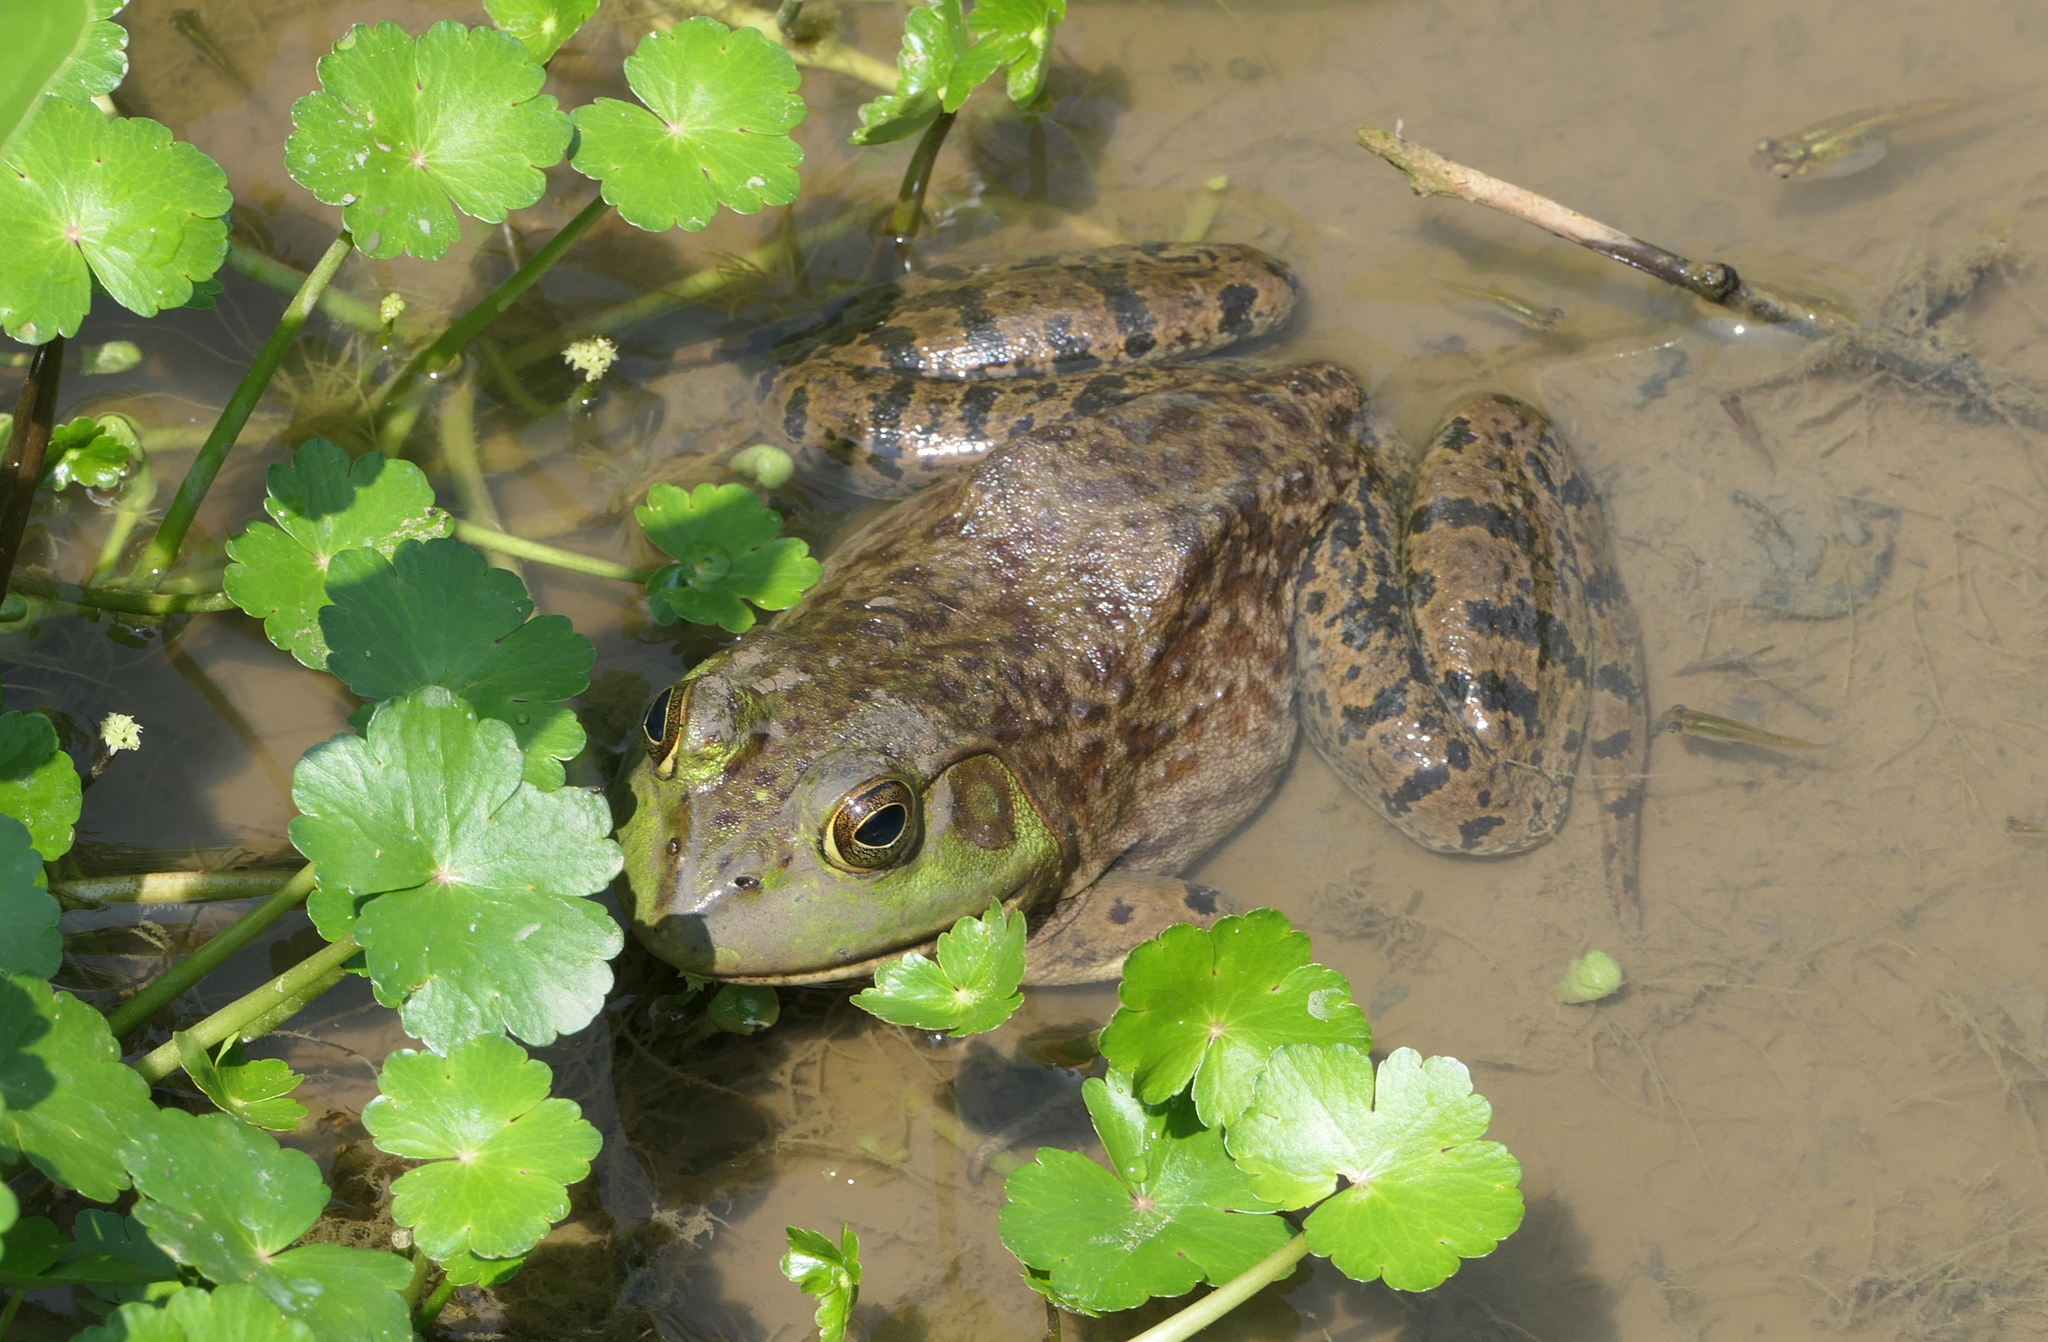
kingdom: Animalia
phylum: Chordata
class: Amphibia
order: Anura
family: Ranidae
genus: Lithobates
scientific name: Lithobates catesbeianus
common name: American bullfrog
